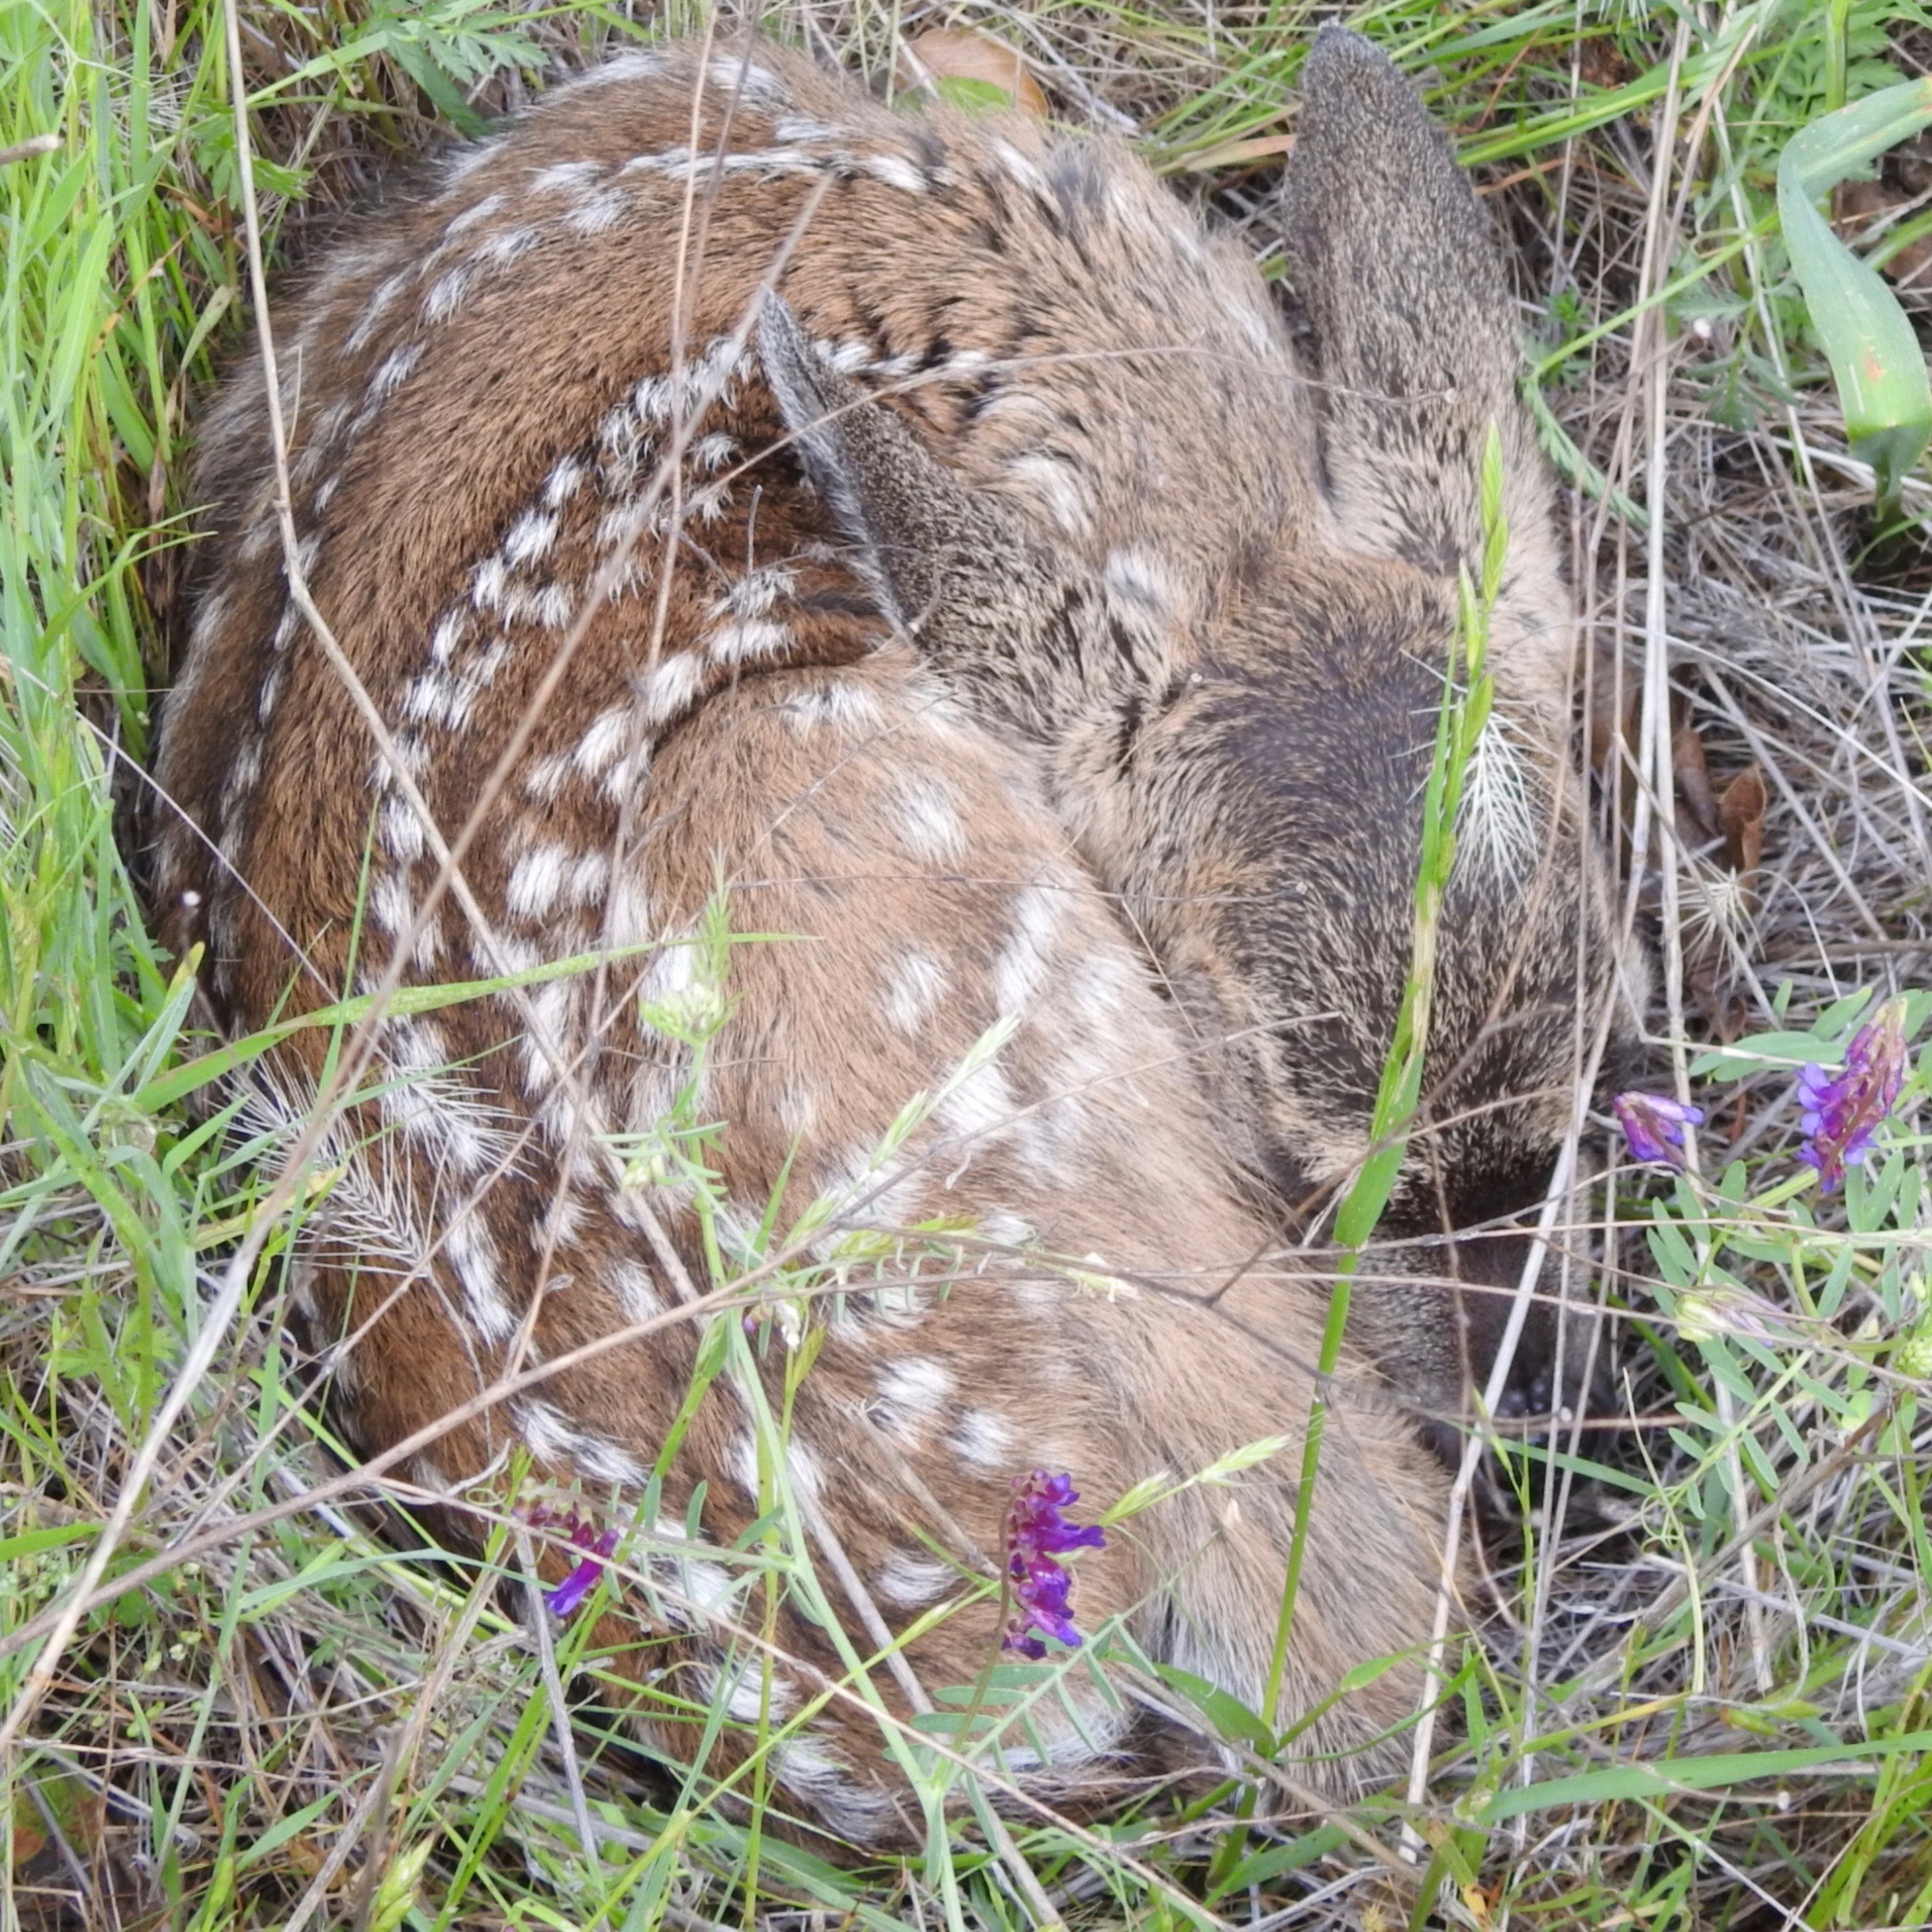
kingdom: Animalia
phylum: Chordata
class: Mammalia
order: Artiodactyla
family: Cervidae
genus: Odocoileus
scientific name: Odocoileus hemionus
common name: Mule deer
